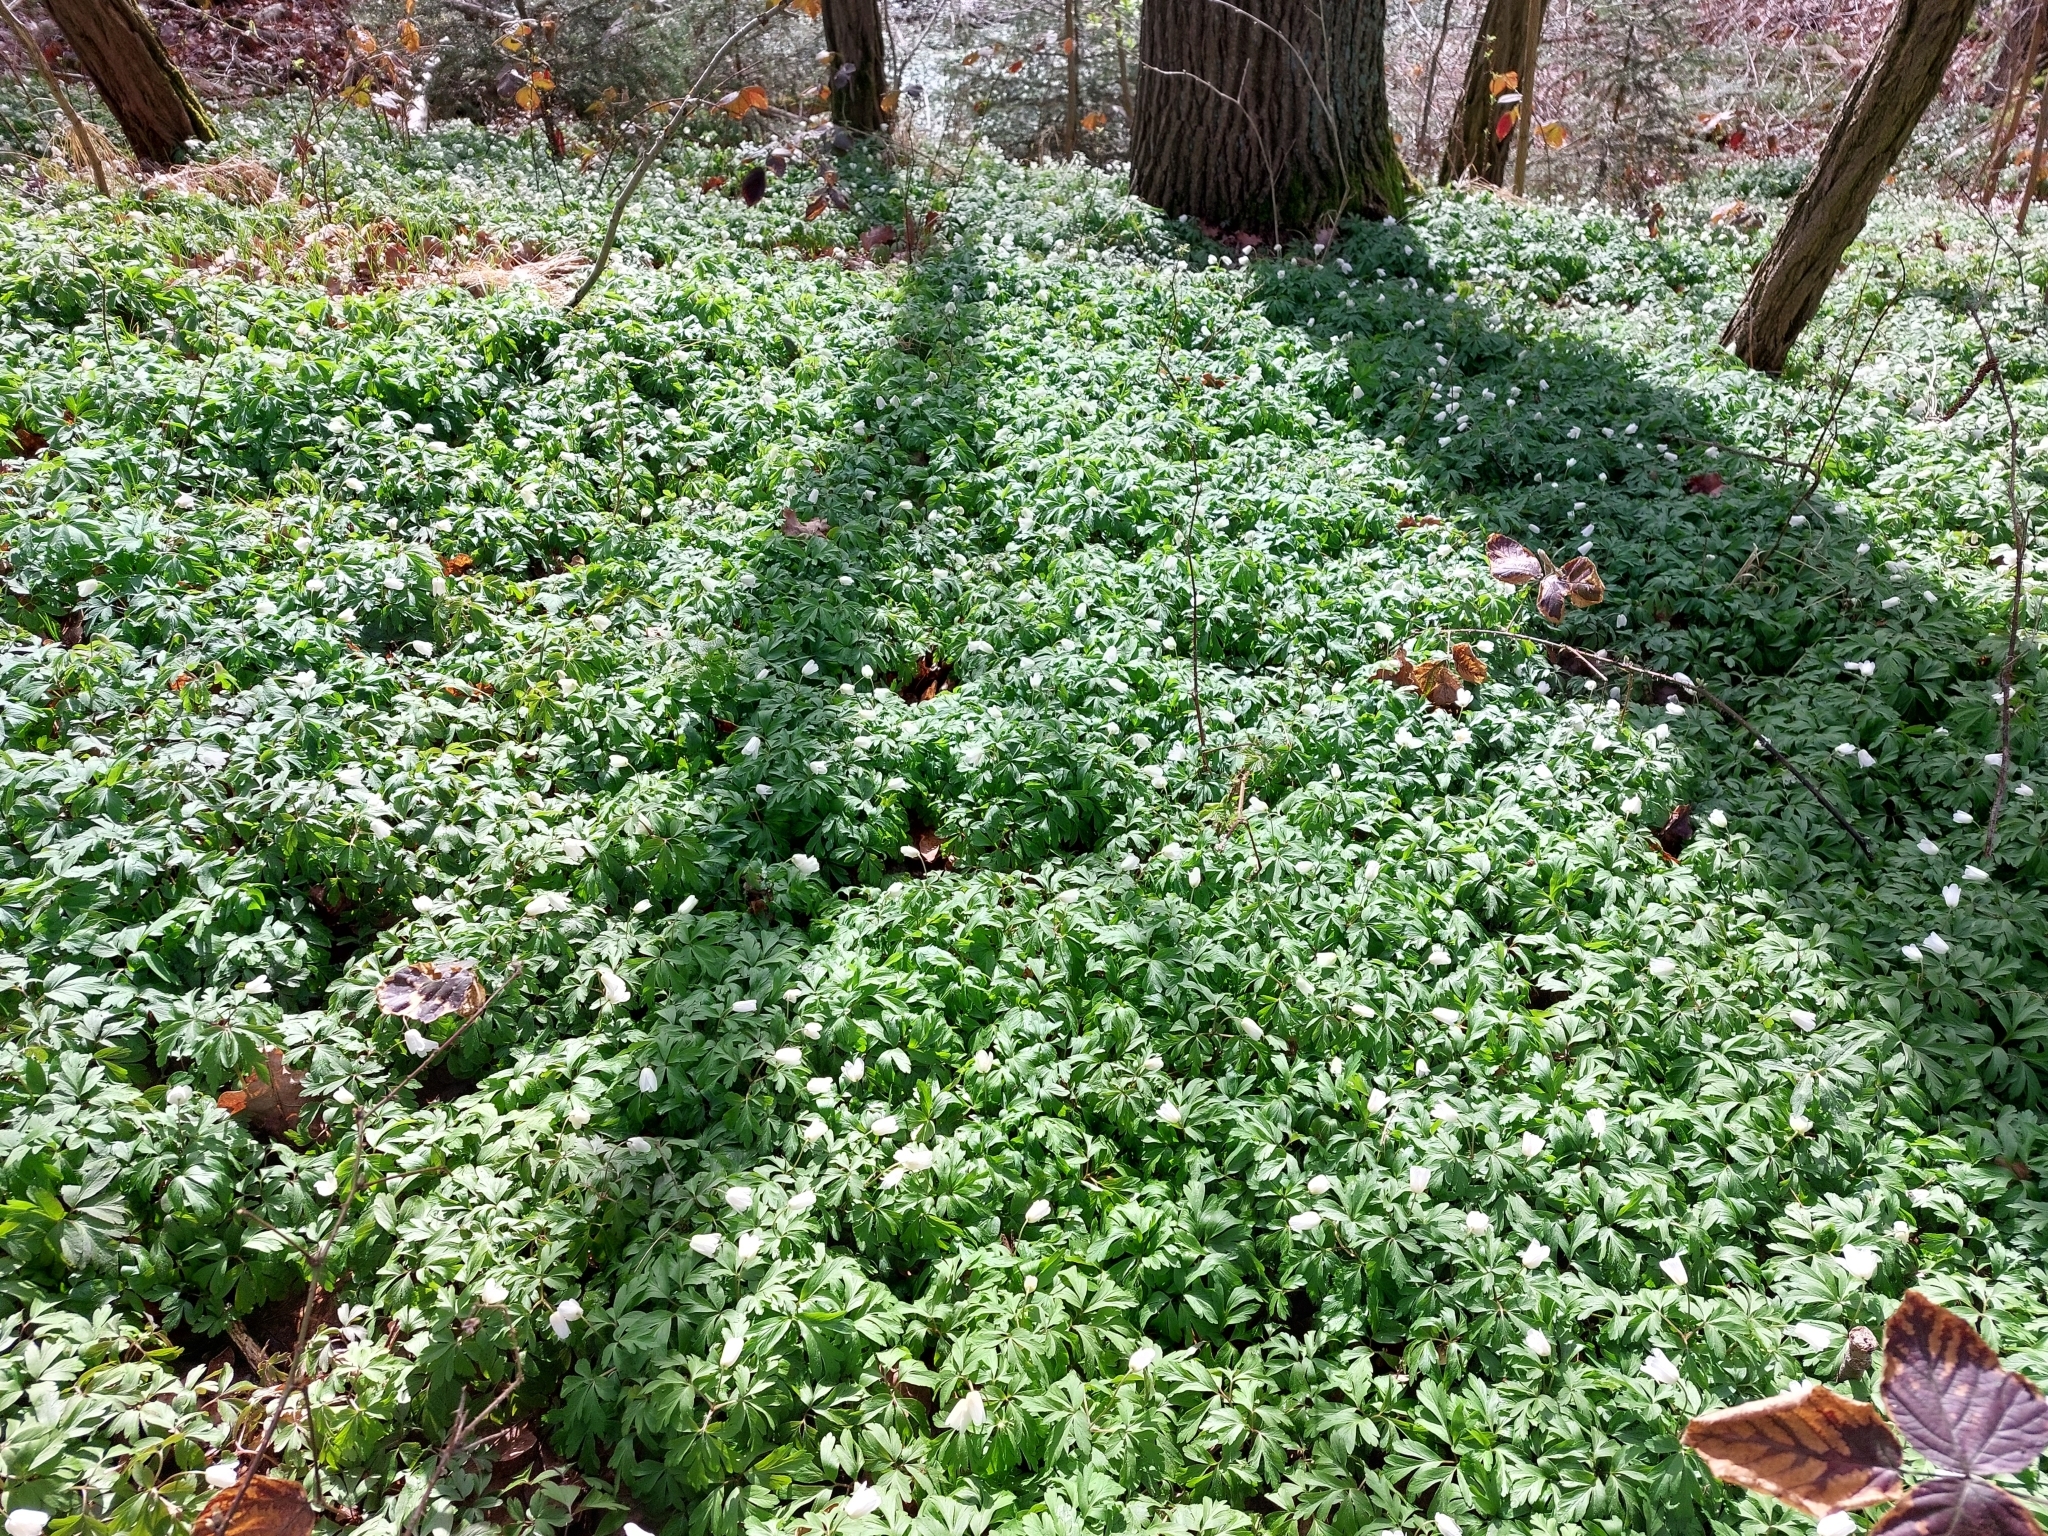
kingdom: Plantae
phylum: Tracheophyta
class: Magnoliopsida
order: Ranunculales
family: Ranunculaceae
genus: Anemone
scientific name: Anemone nemorosa
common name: Wood anemone
